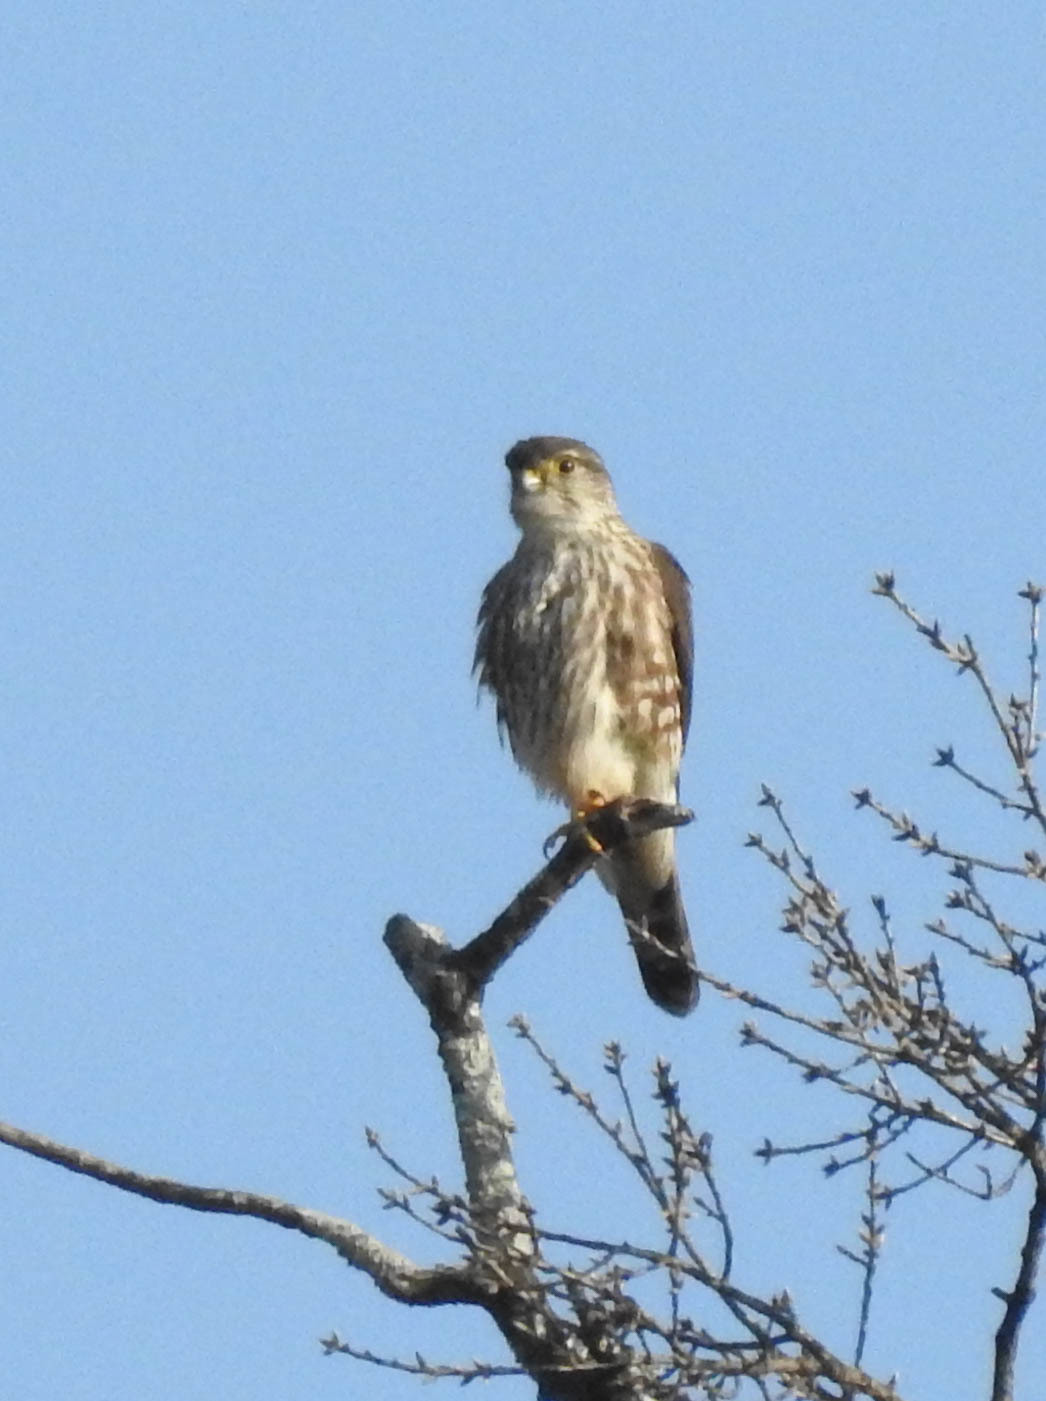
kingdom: Animalia
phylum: Chordata
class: Aves
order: Falconiformes
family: Falconidae
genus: Falco
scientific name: Falco columbarius
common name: Merlin
